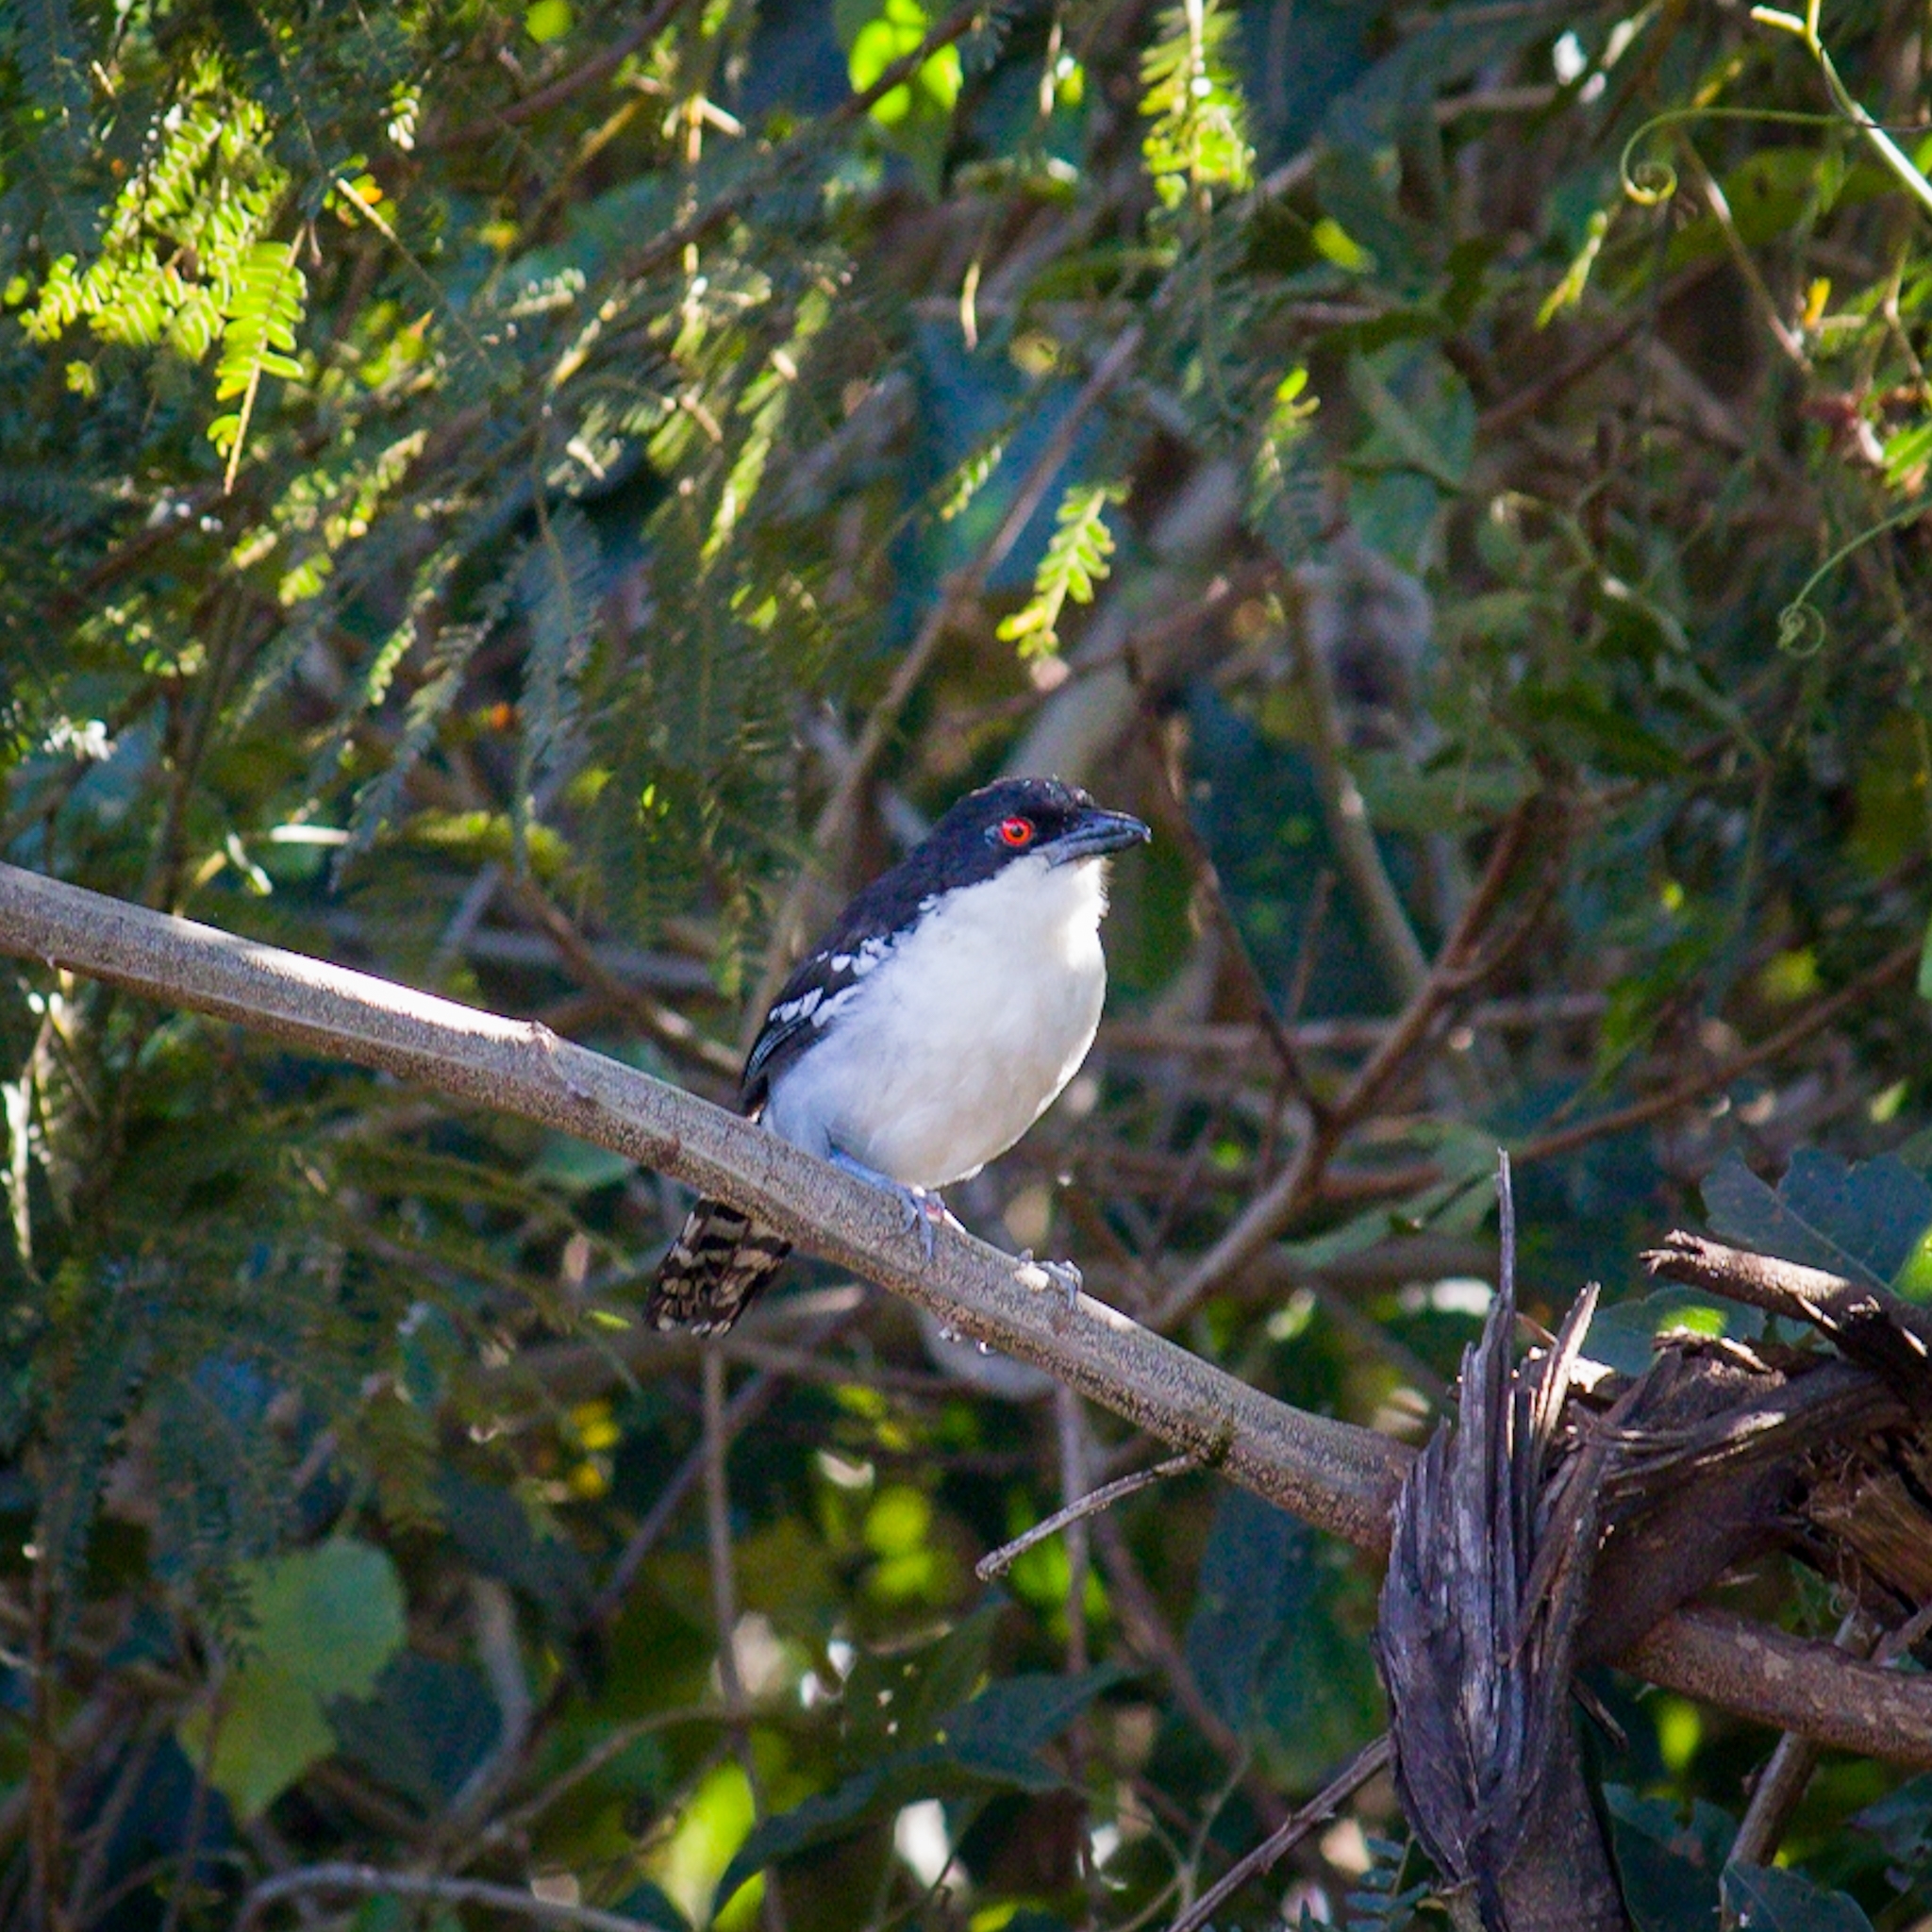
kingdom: Animalia
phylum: Chordata
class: Aves
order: Passeriformes
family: Thamnophilidae
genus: Taraba
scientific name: Taraba major
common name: Great antshrike
